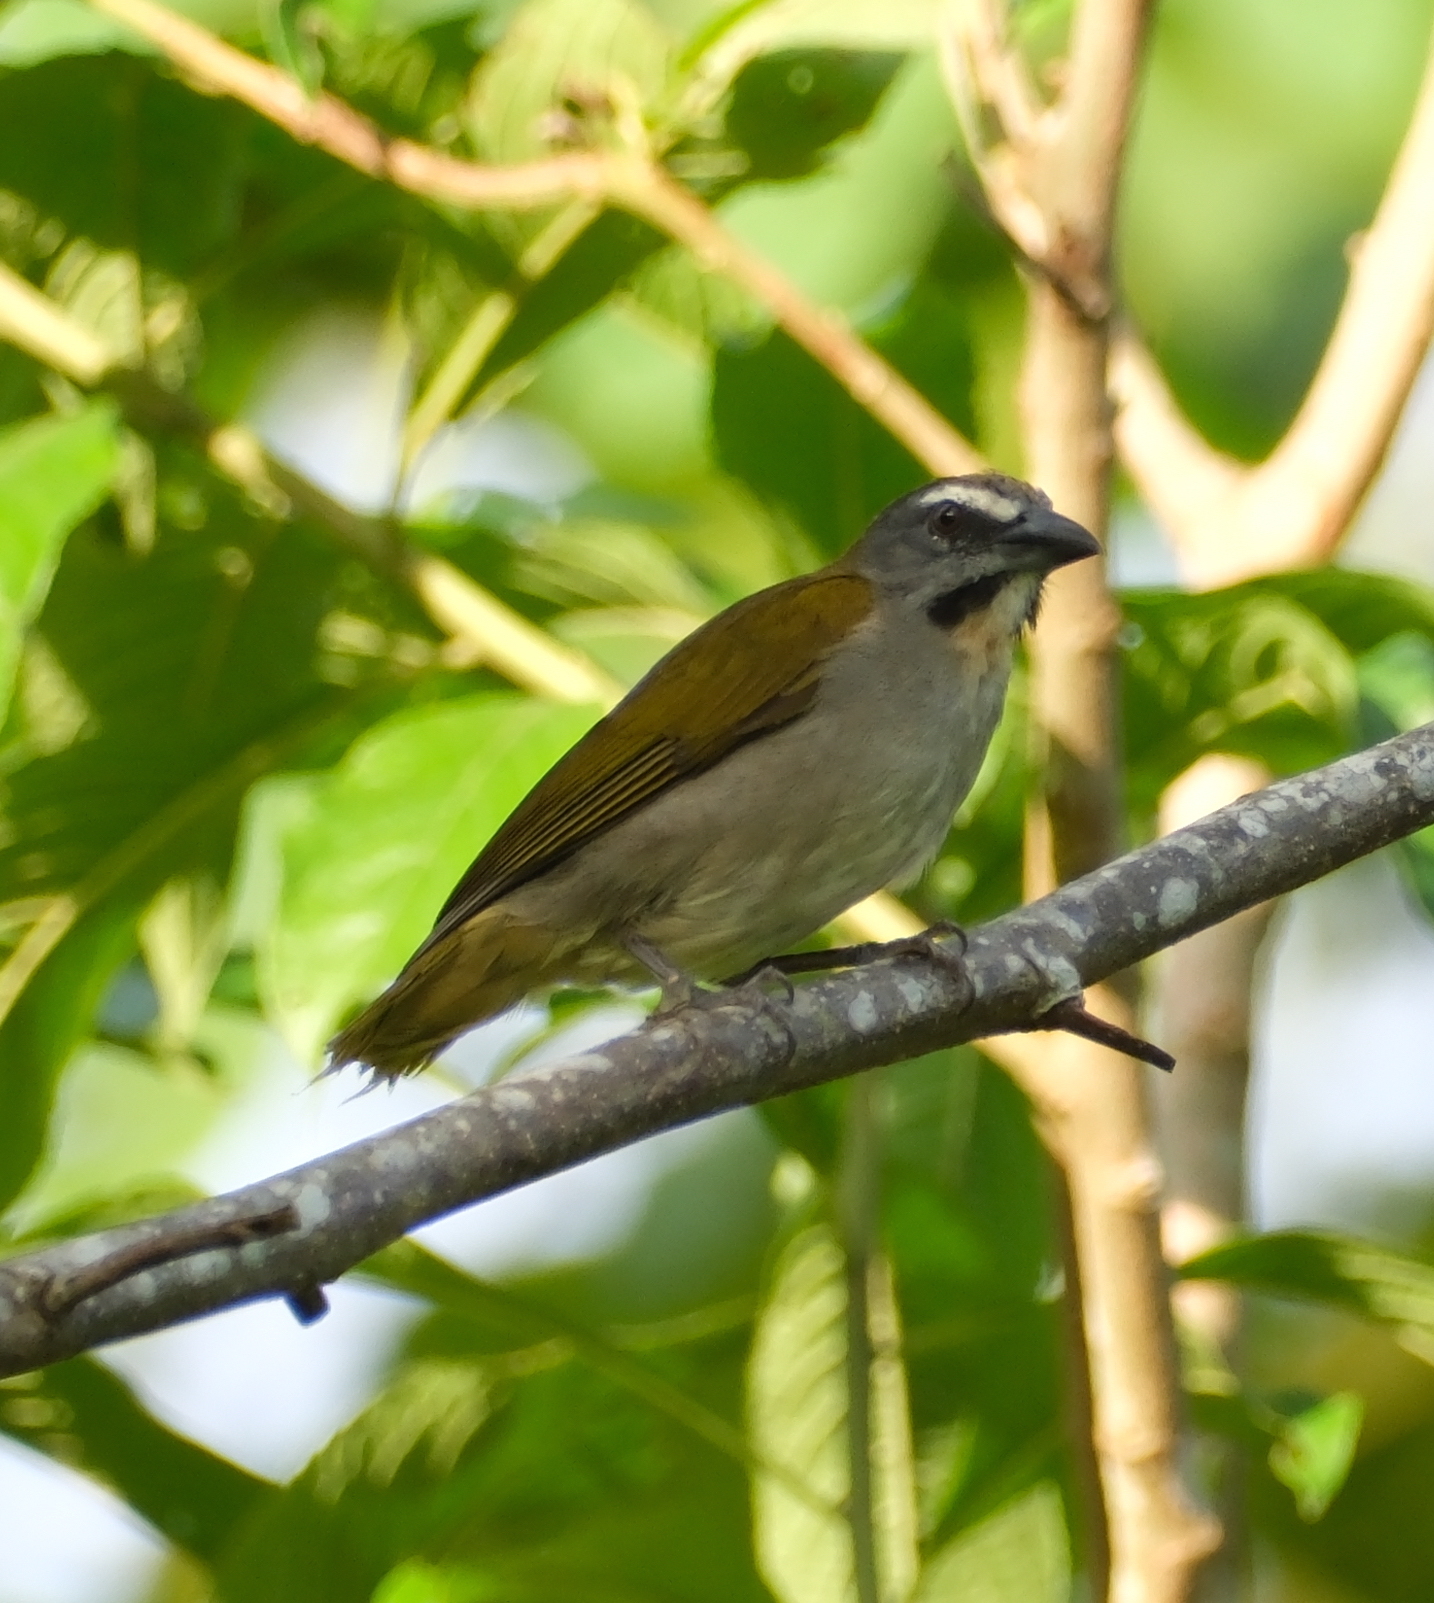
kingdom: Animalia
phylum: Chordata
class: Aves
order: Passeriformes
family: Thraupidae
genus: Saltator
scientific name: Saltator maximus
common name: Buff-throated saltator
